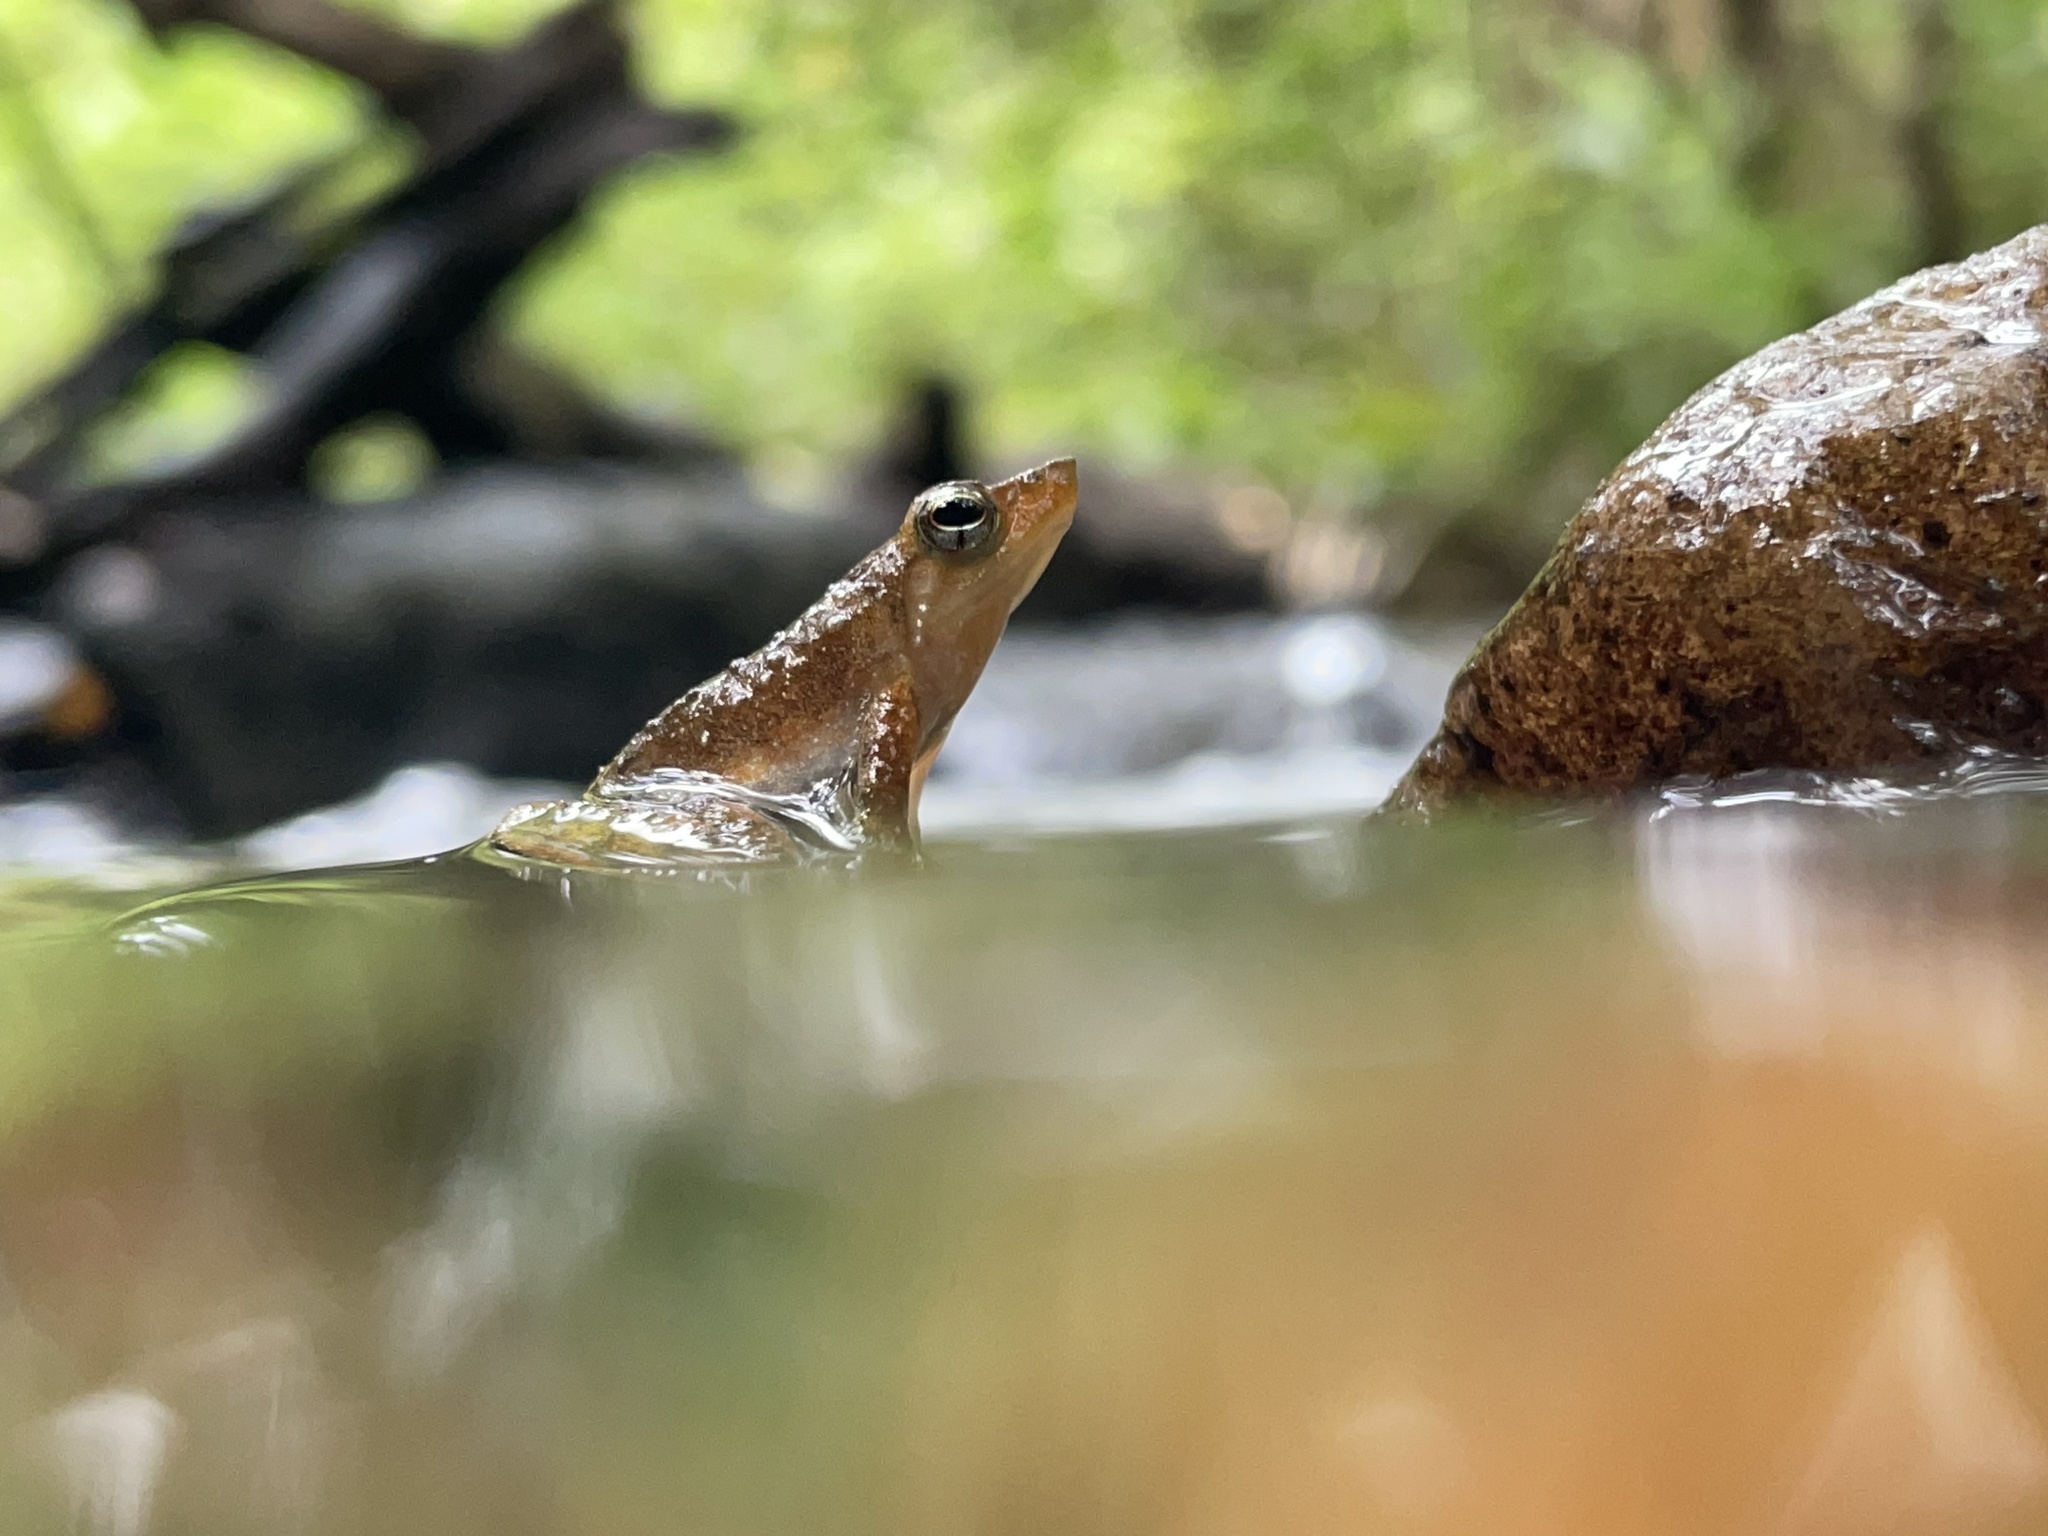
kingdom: Animalia
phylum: Chordata
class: Amphibia
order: Anura
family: Micrixalidae
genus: Micrixalus
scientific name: Micrixalus kottigeharensis
